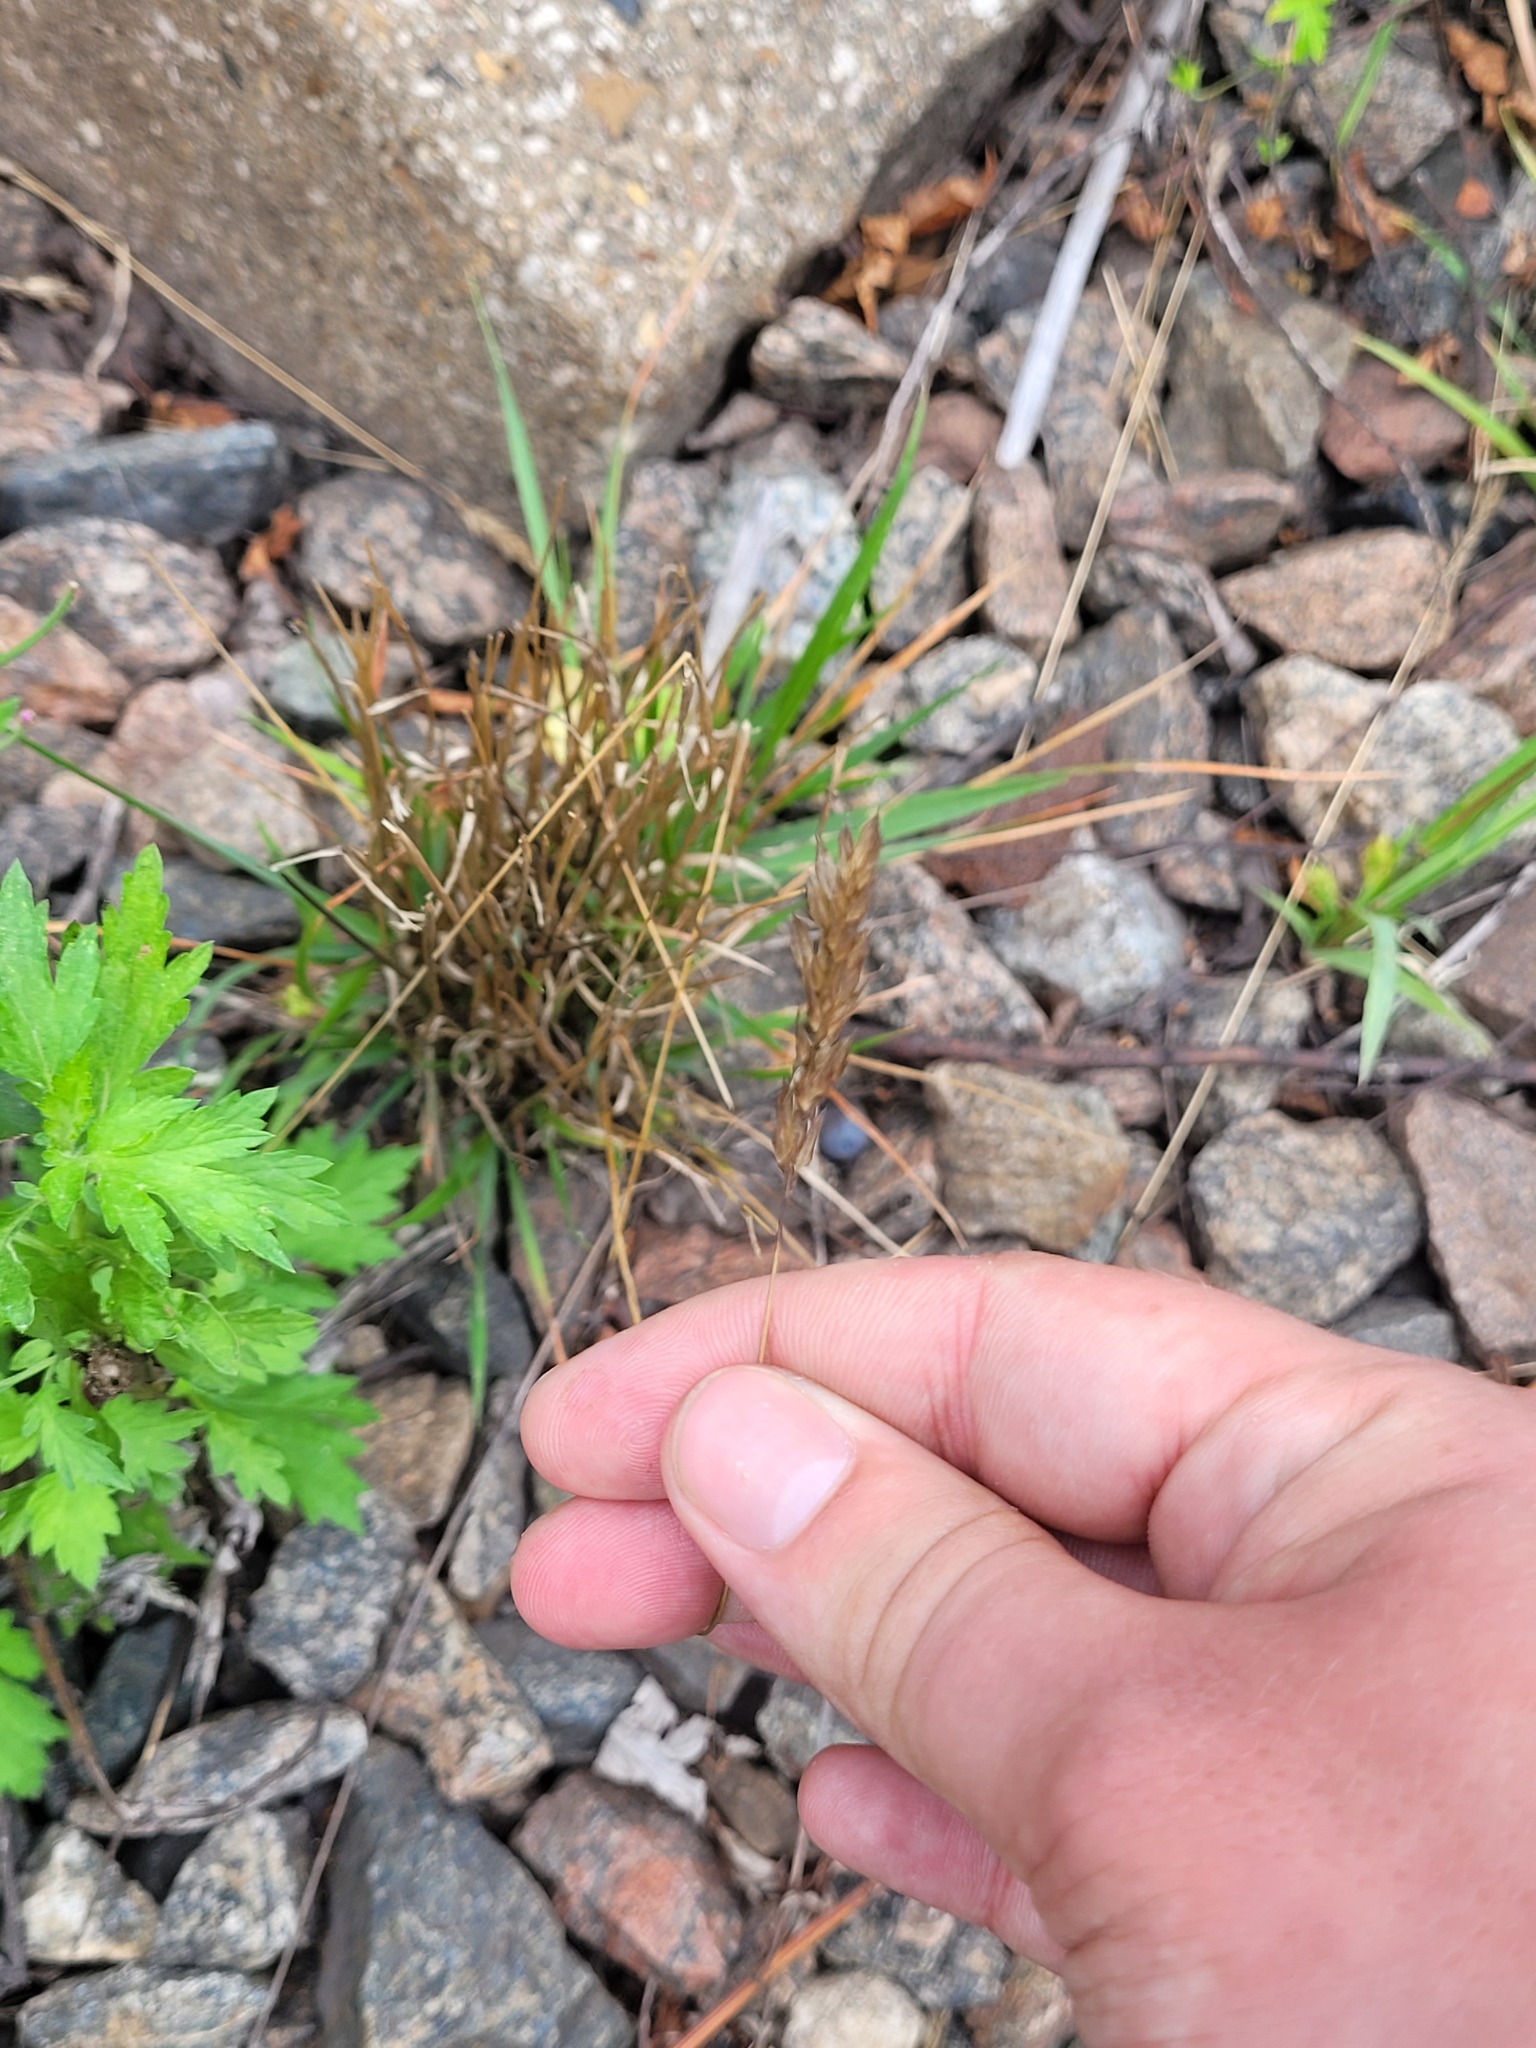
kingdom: Plantae
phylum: Tracheophyta
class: Liliopsida
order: Poales
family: Poaceae
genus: Anthoxanthum
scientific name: Anthoxanthum odoratum
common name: Sweet vernalgrass
